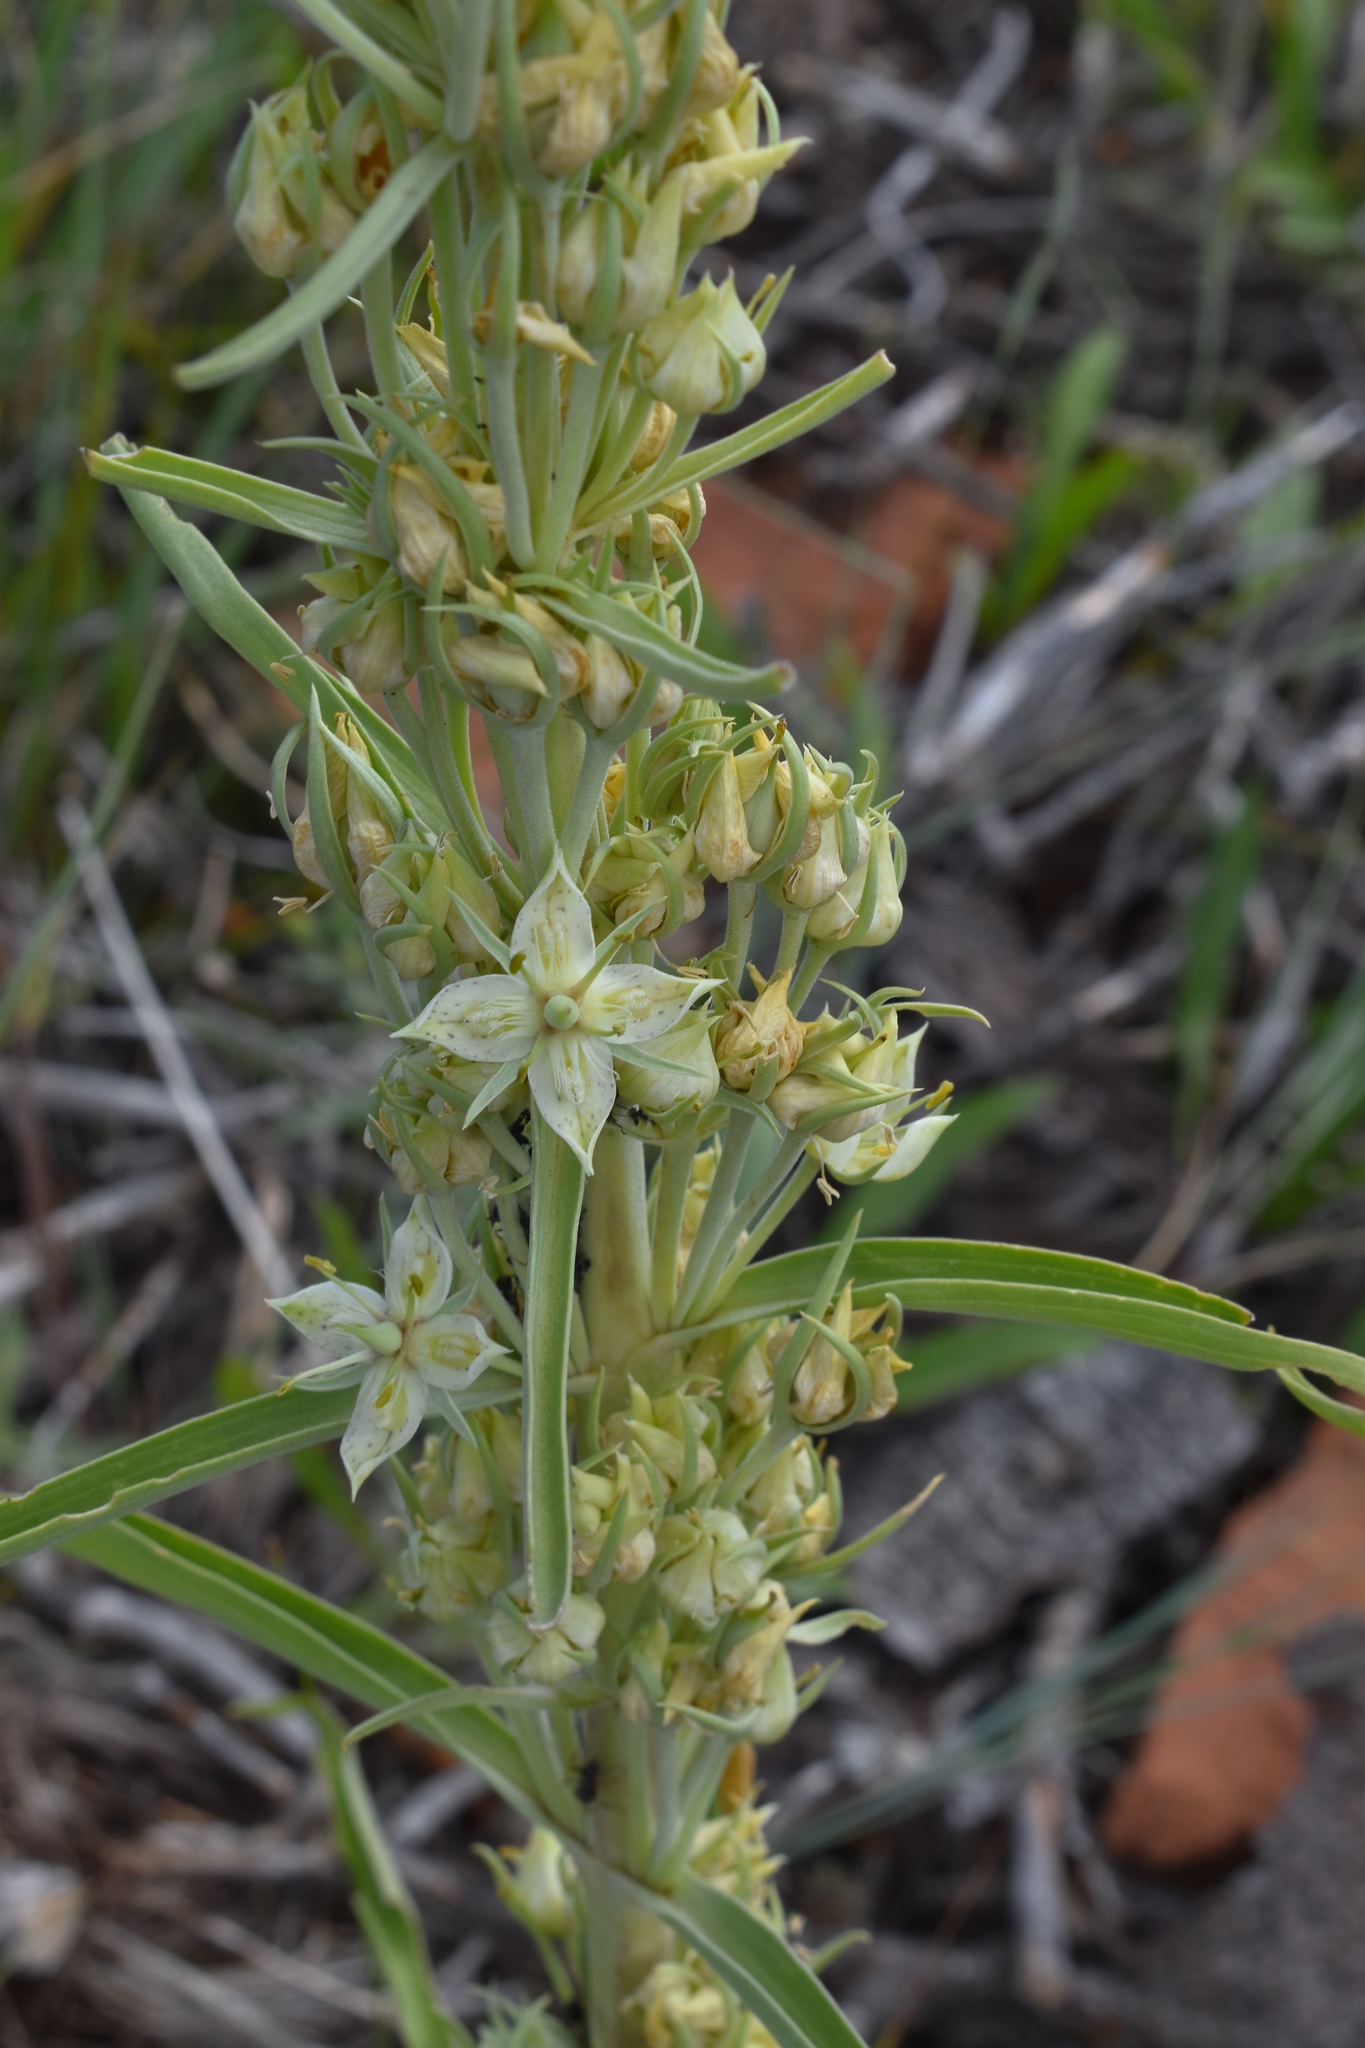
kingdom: Plantae
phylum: Tracheophyta
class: Magnoliopsida
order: Gentianales
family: Gentianaceae
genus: Frasera
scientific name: Frasera speciosa
